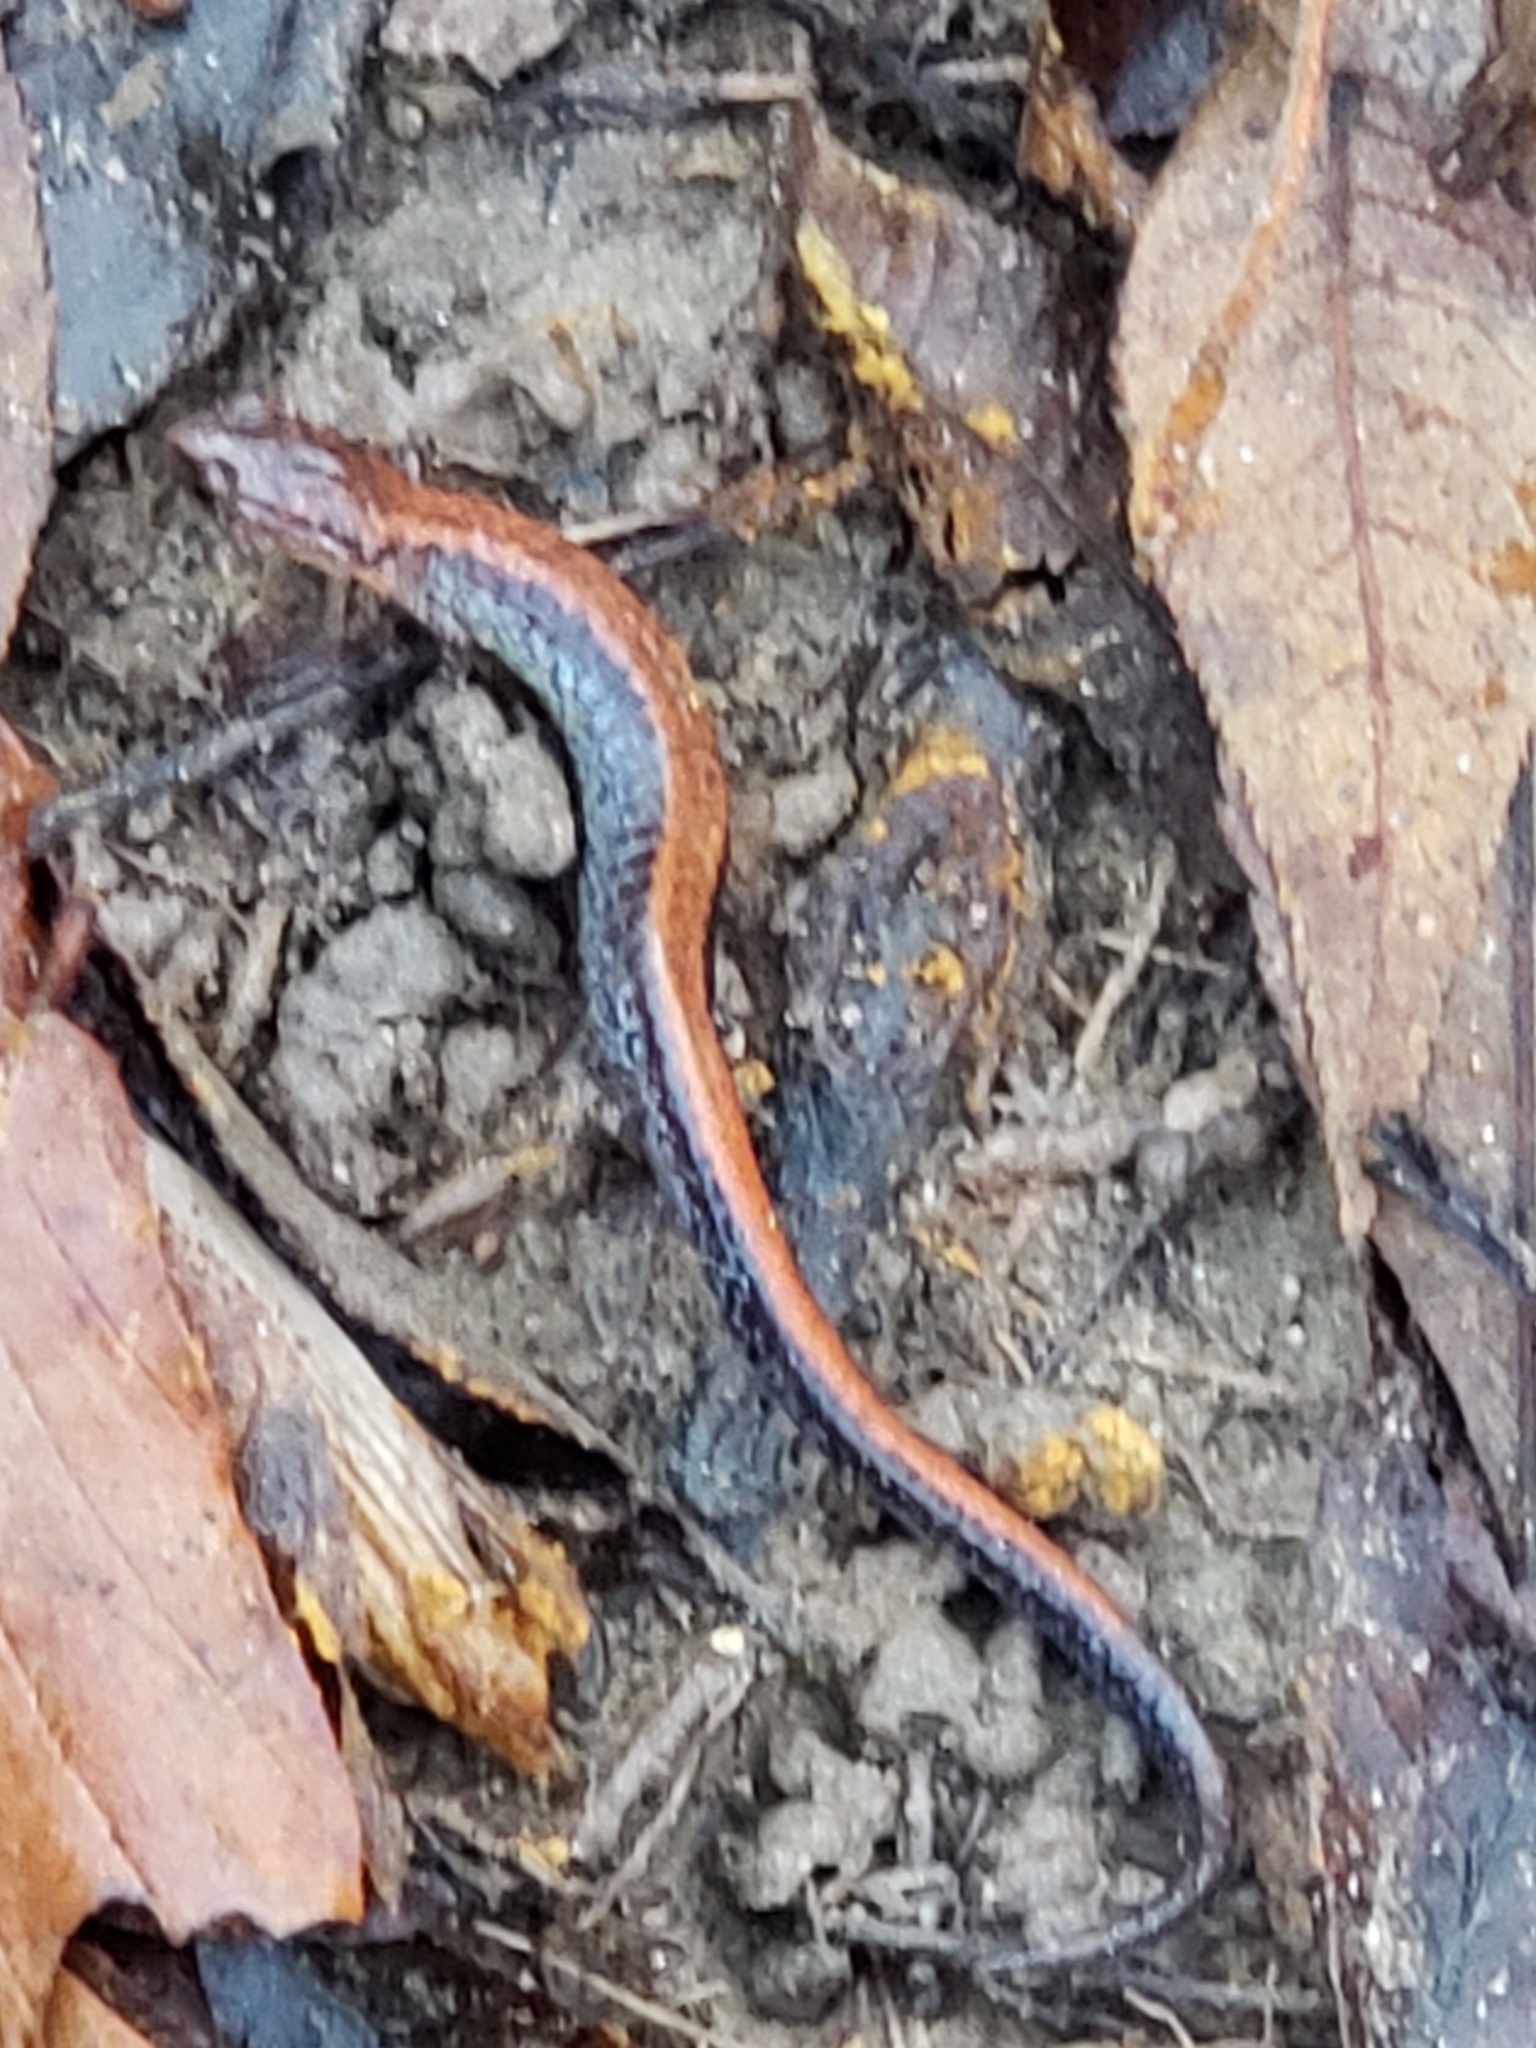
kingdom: Animalia
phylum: Chordata
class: Amphibia
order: Caudata
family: Plethodontidae
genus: Plethodon
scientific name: Plethodon cinereus
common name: Redback salamander
